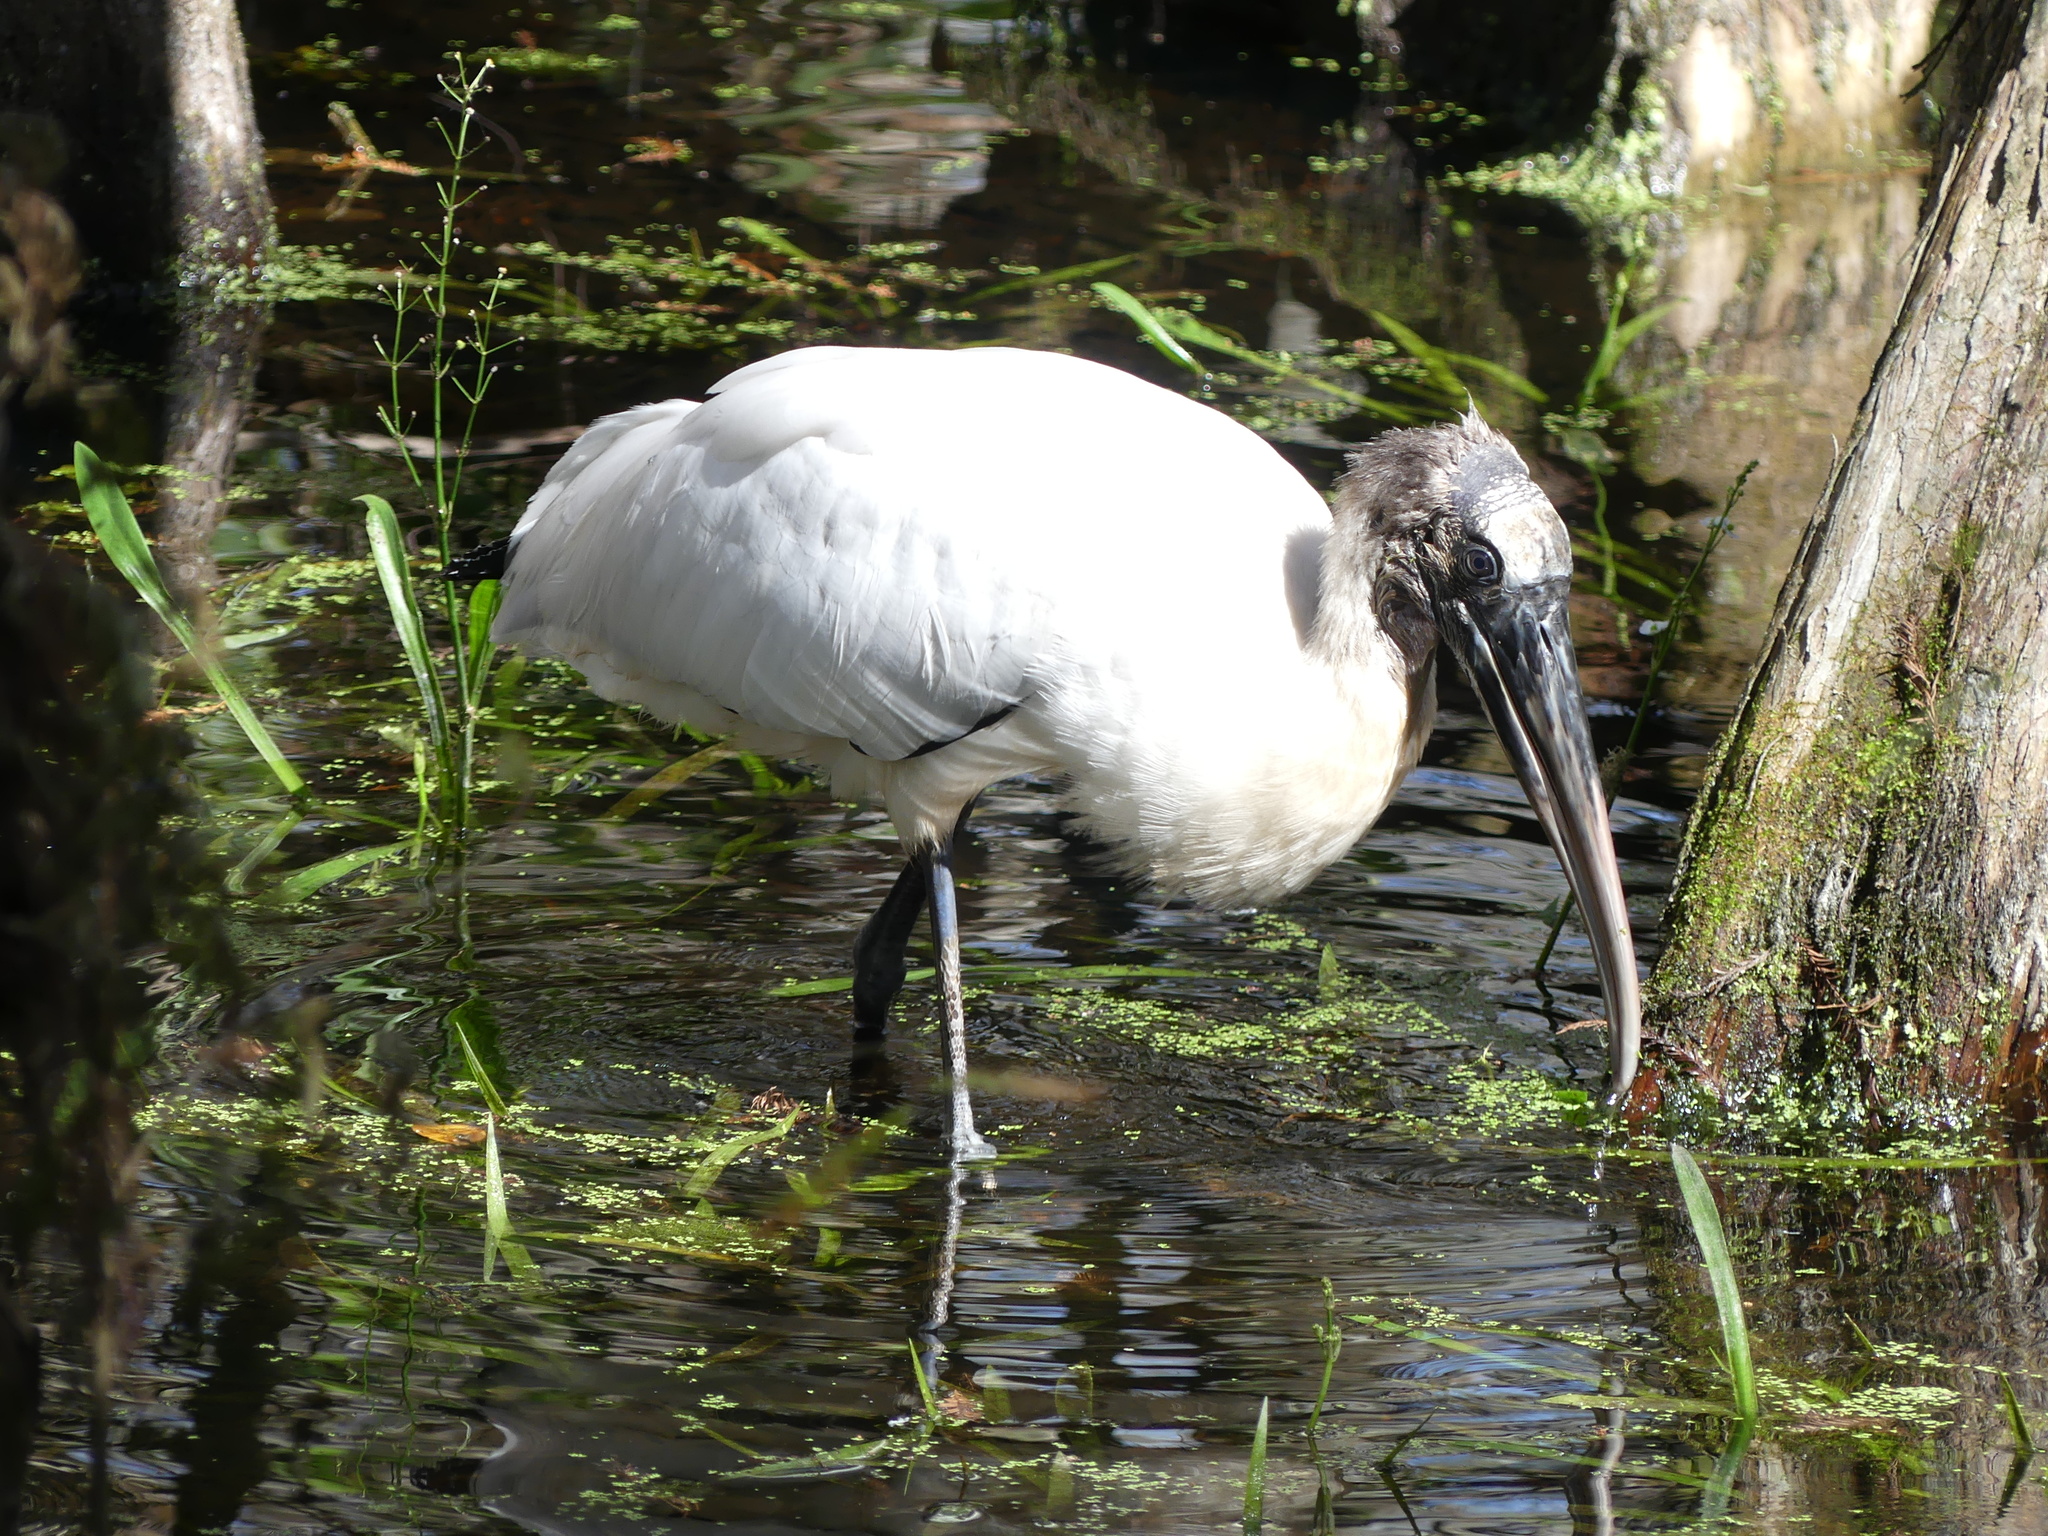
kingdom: Animalia
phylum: Chordata
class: Aves
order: Ciconiiformes
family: Ciconiidae
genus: Mycteria
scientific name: Mycteria americana
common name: Wood stork
